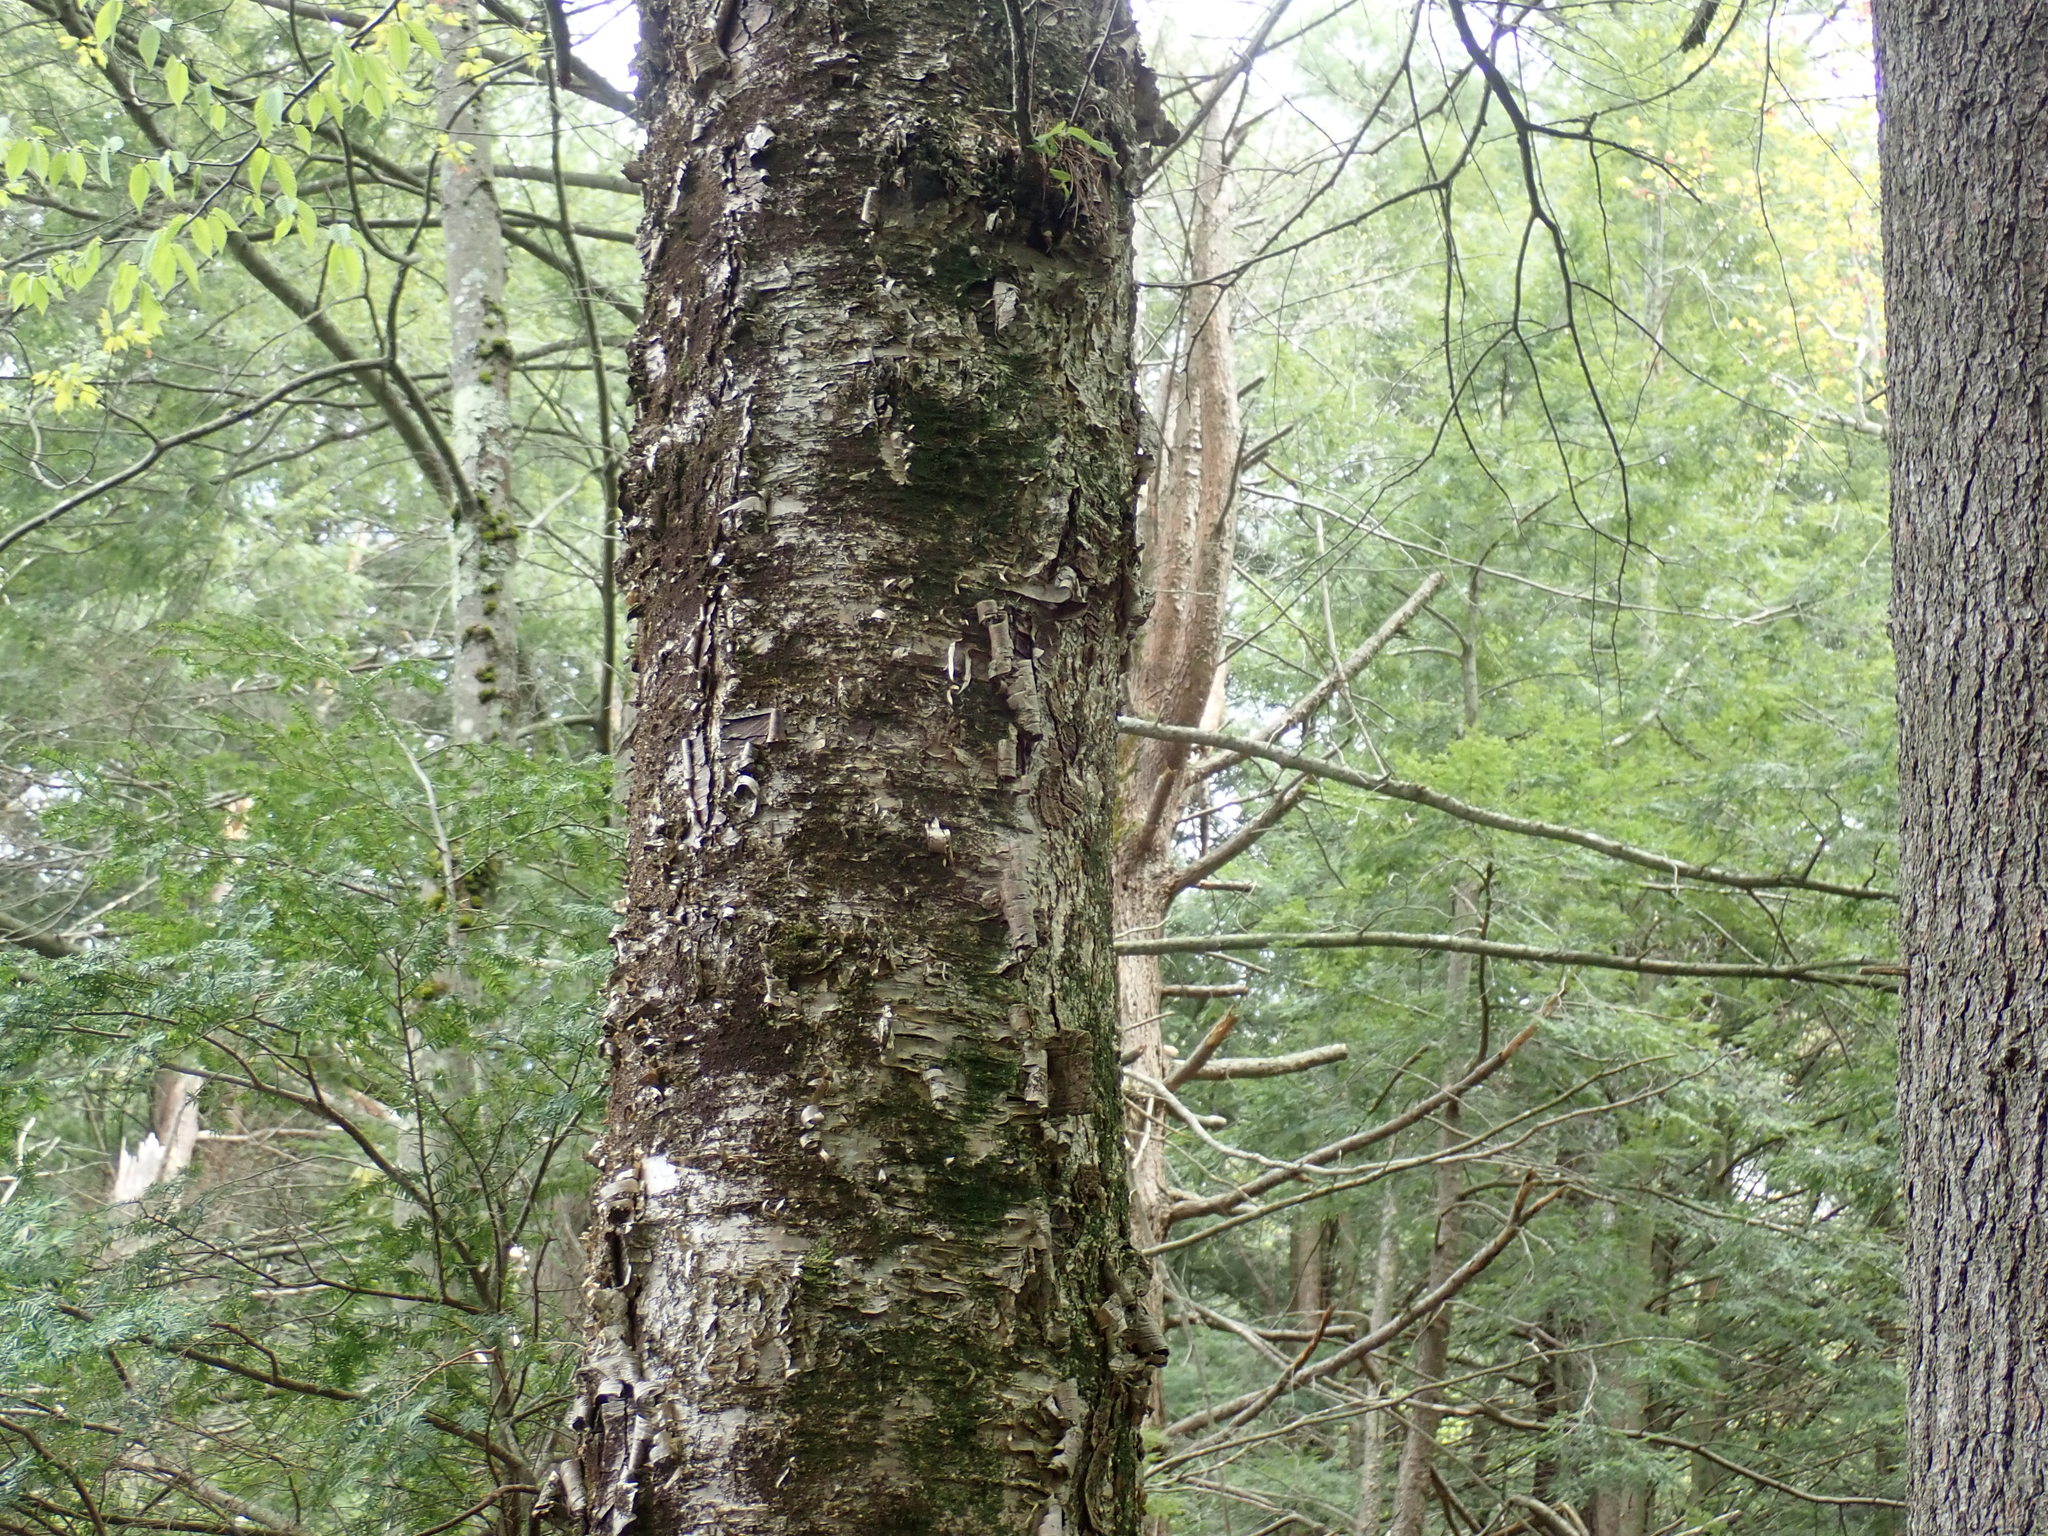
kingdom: Plantae
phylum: Tracheophyta
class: Magnoliopsida
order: Fagales
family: Betulaceae
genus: Betula
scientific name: Betula alleghaniensis
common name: Yellow birch
